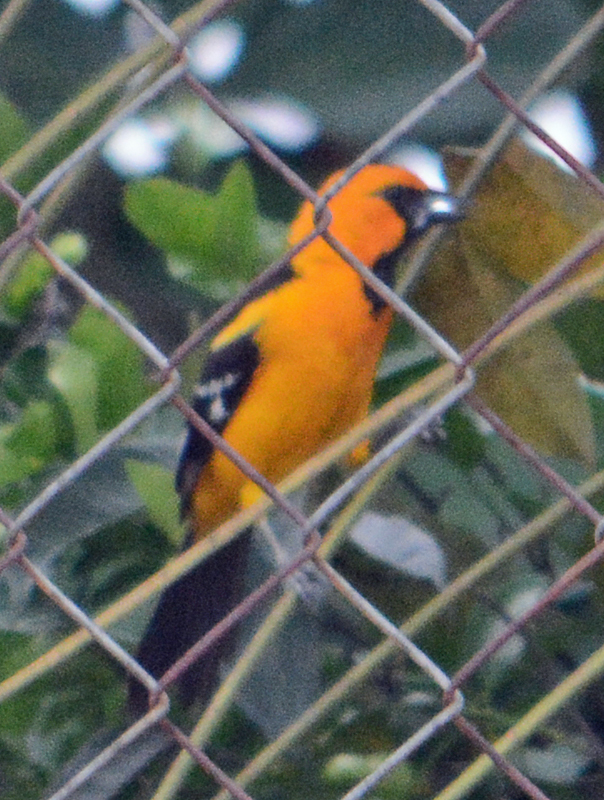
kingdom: Animalia
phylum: Chordata
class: Aves
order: Passeriformes
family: Icteridae
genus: Icterus
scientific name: Icterus gularis
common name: Altamira oriole
